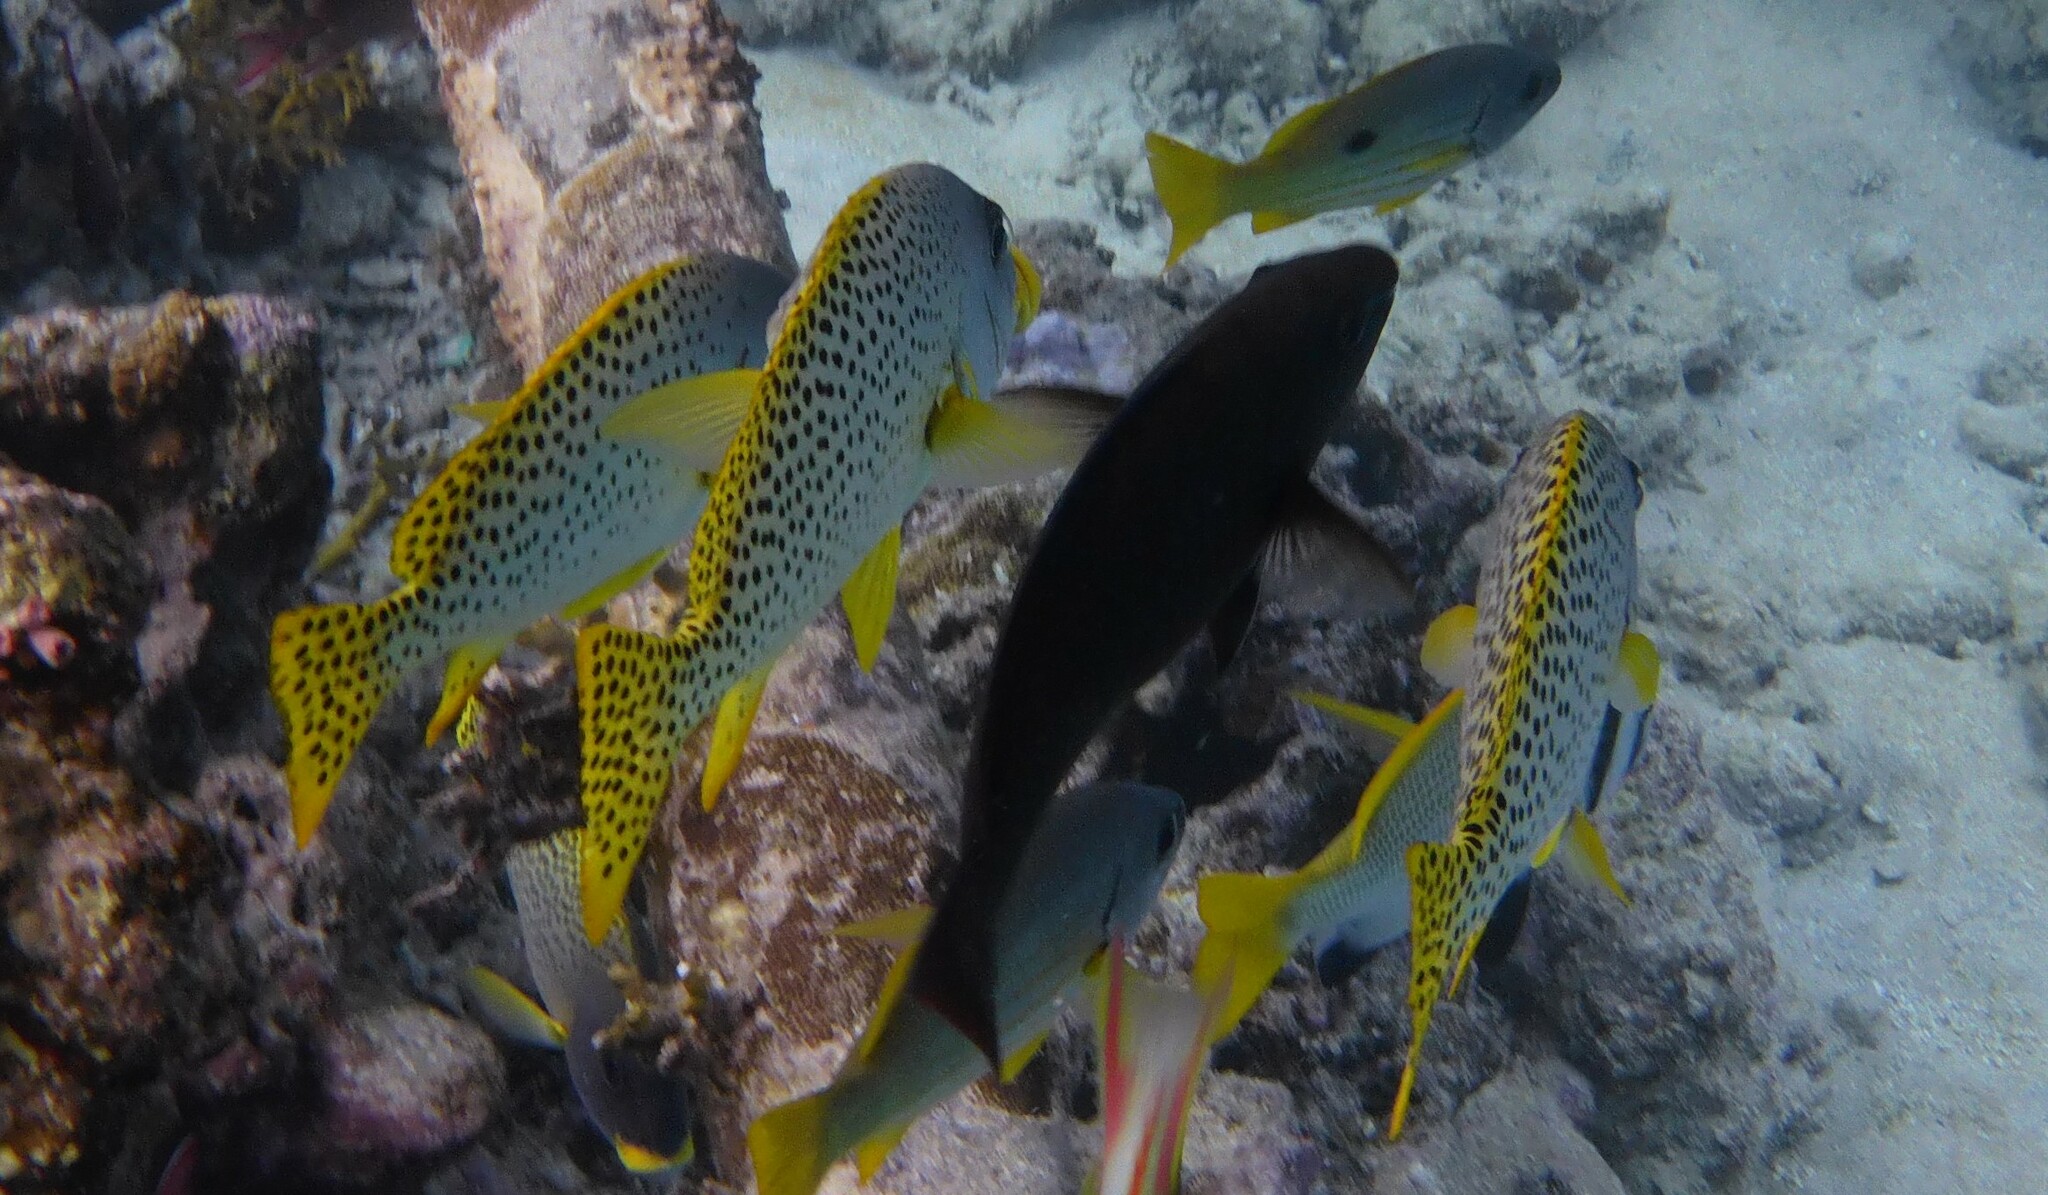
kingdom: Animalia
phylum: Chordata
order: Perciformes
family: Haemulidae
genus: Plectorhinchus
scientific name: Plectorhinchus gaterinus
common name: Blackspotted rubberlip
